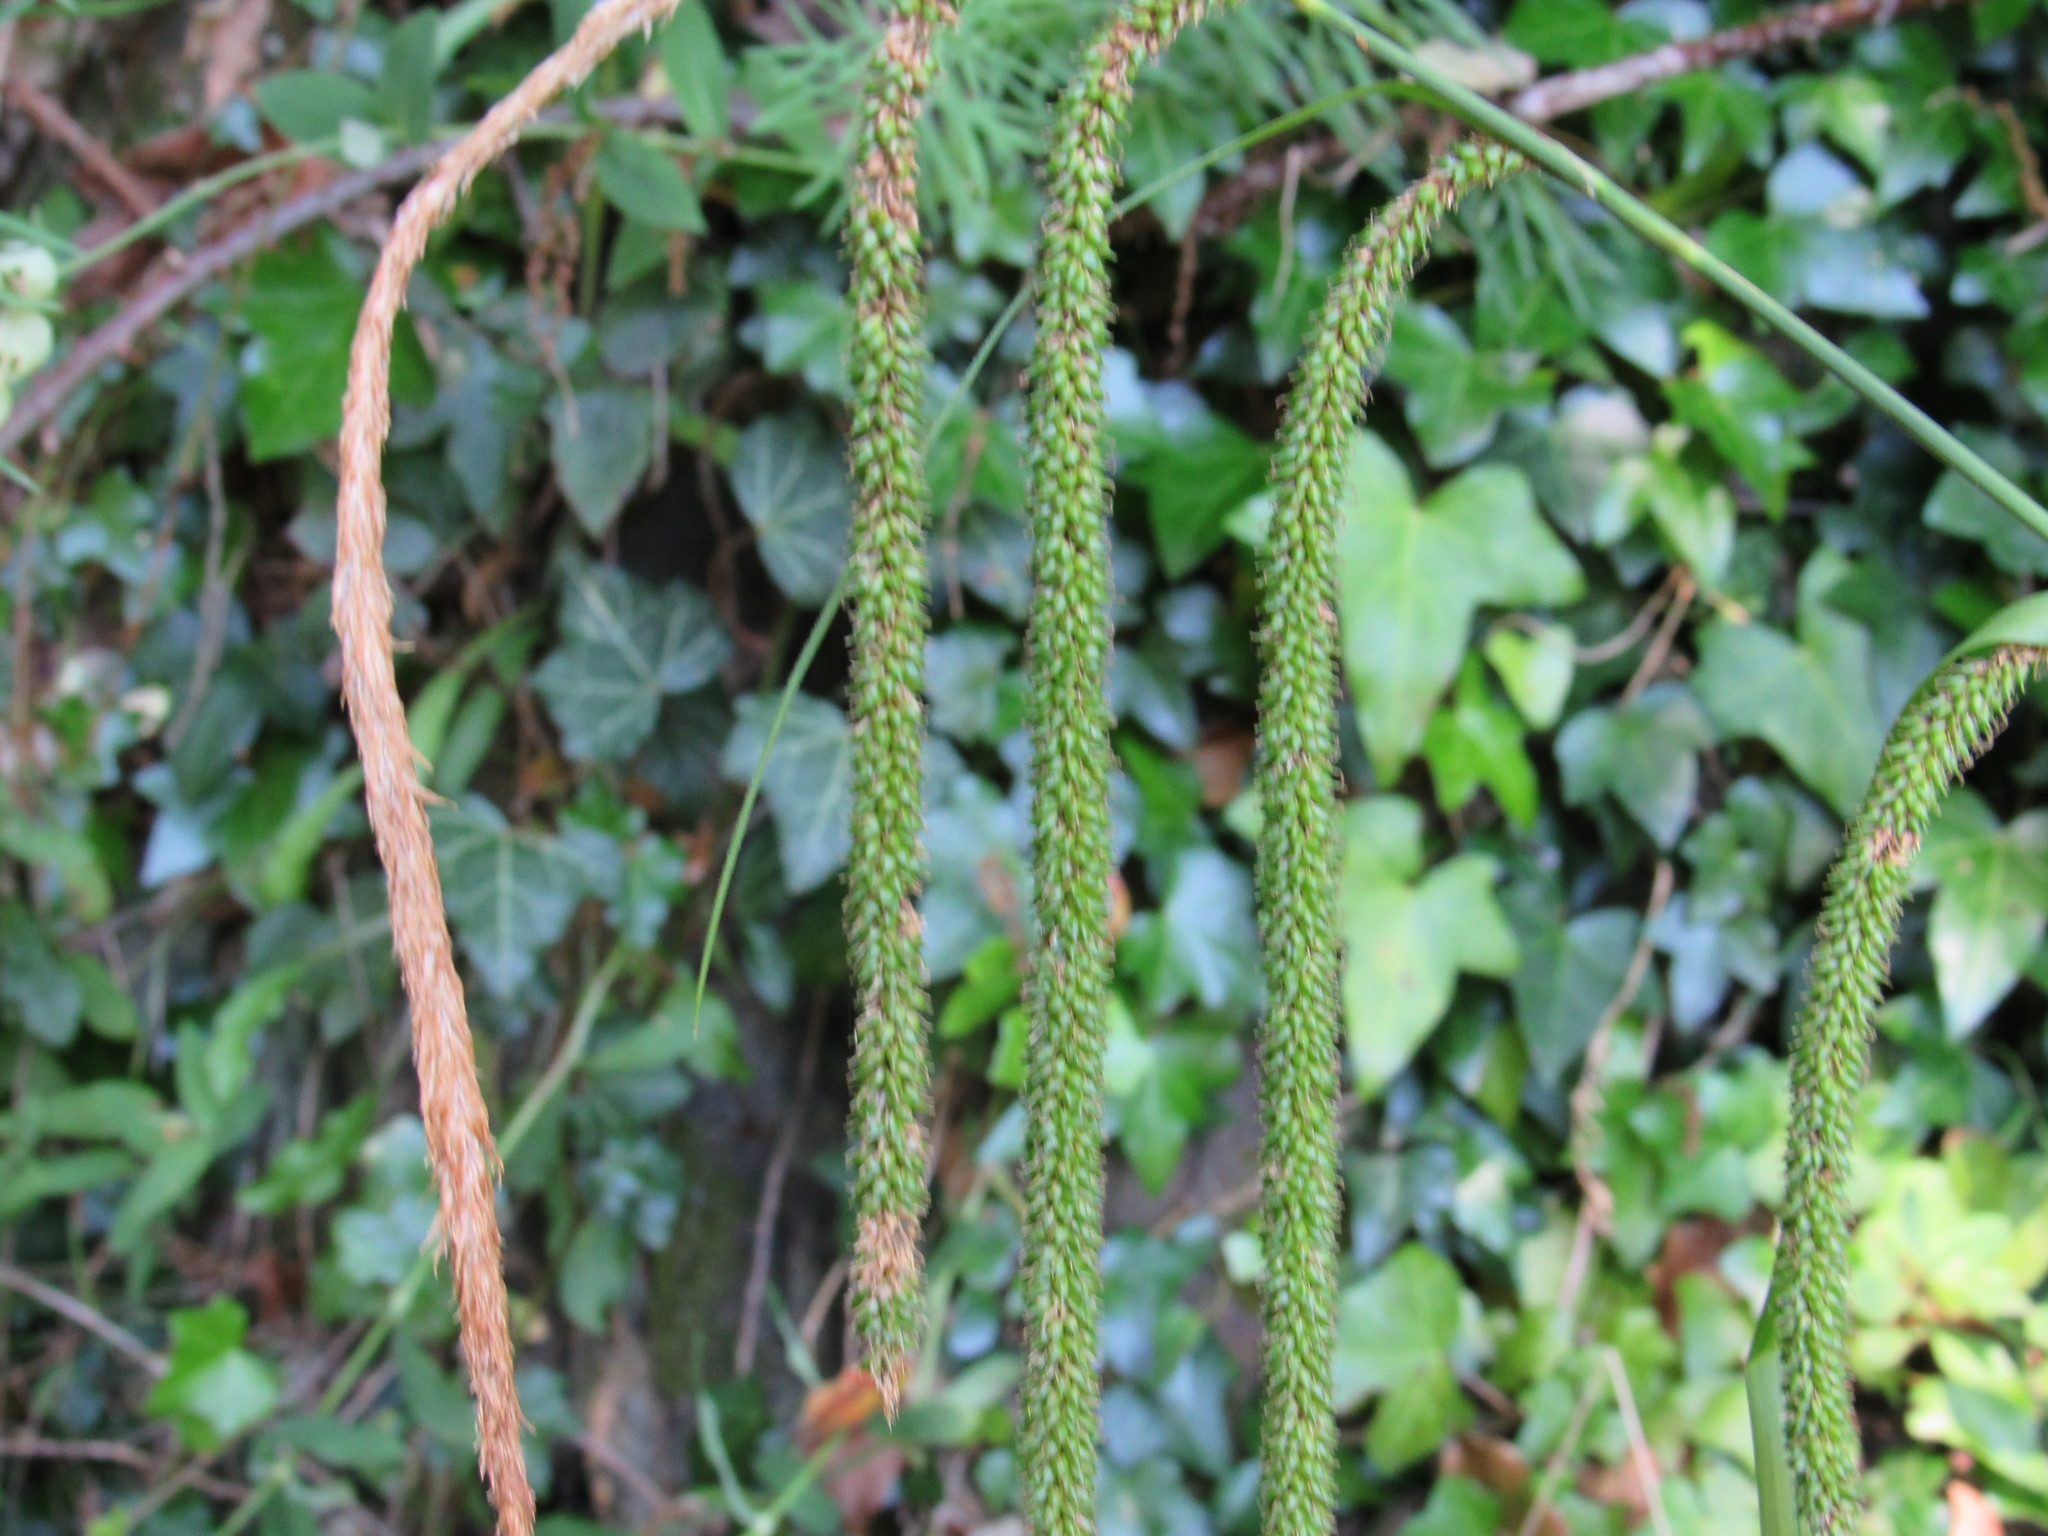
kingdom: Plantae
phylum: Tracheophyta
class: Liliopsida
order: Poales
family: Cyperaceae
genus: Carex
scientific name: Carex pendula
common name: Pendulous sedge
